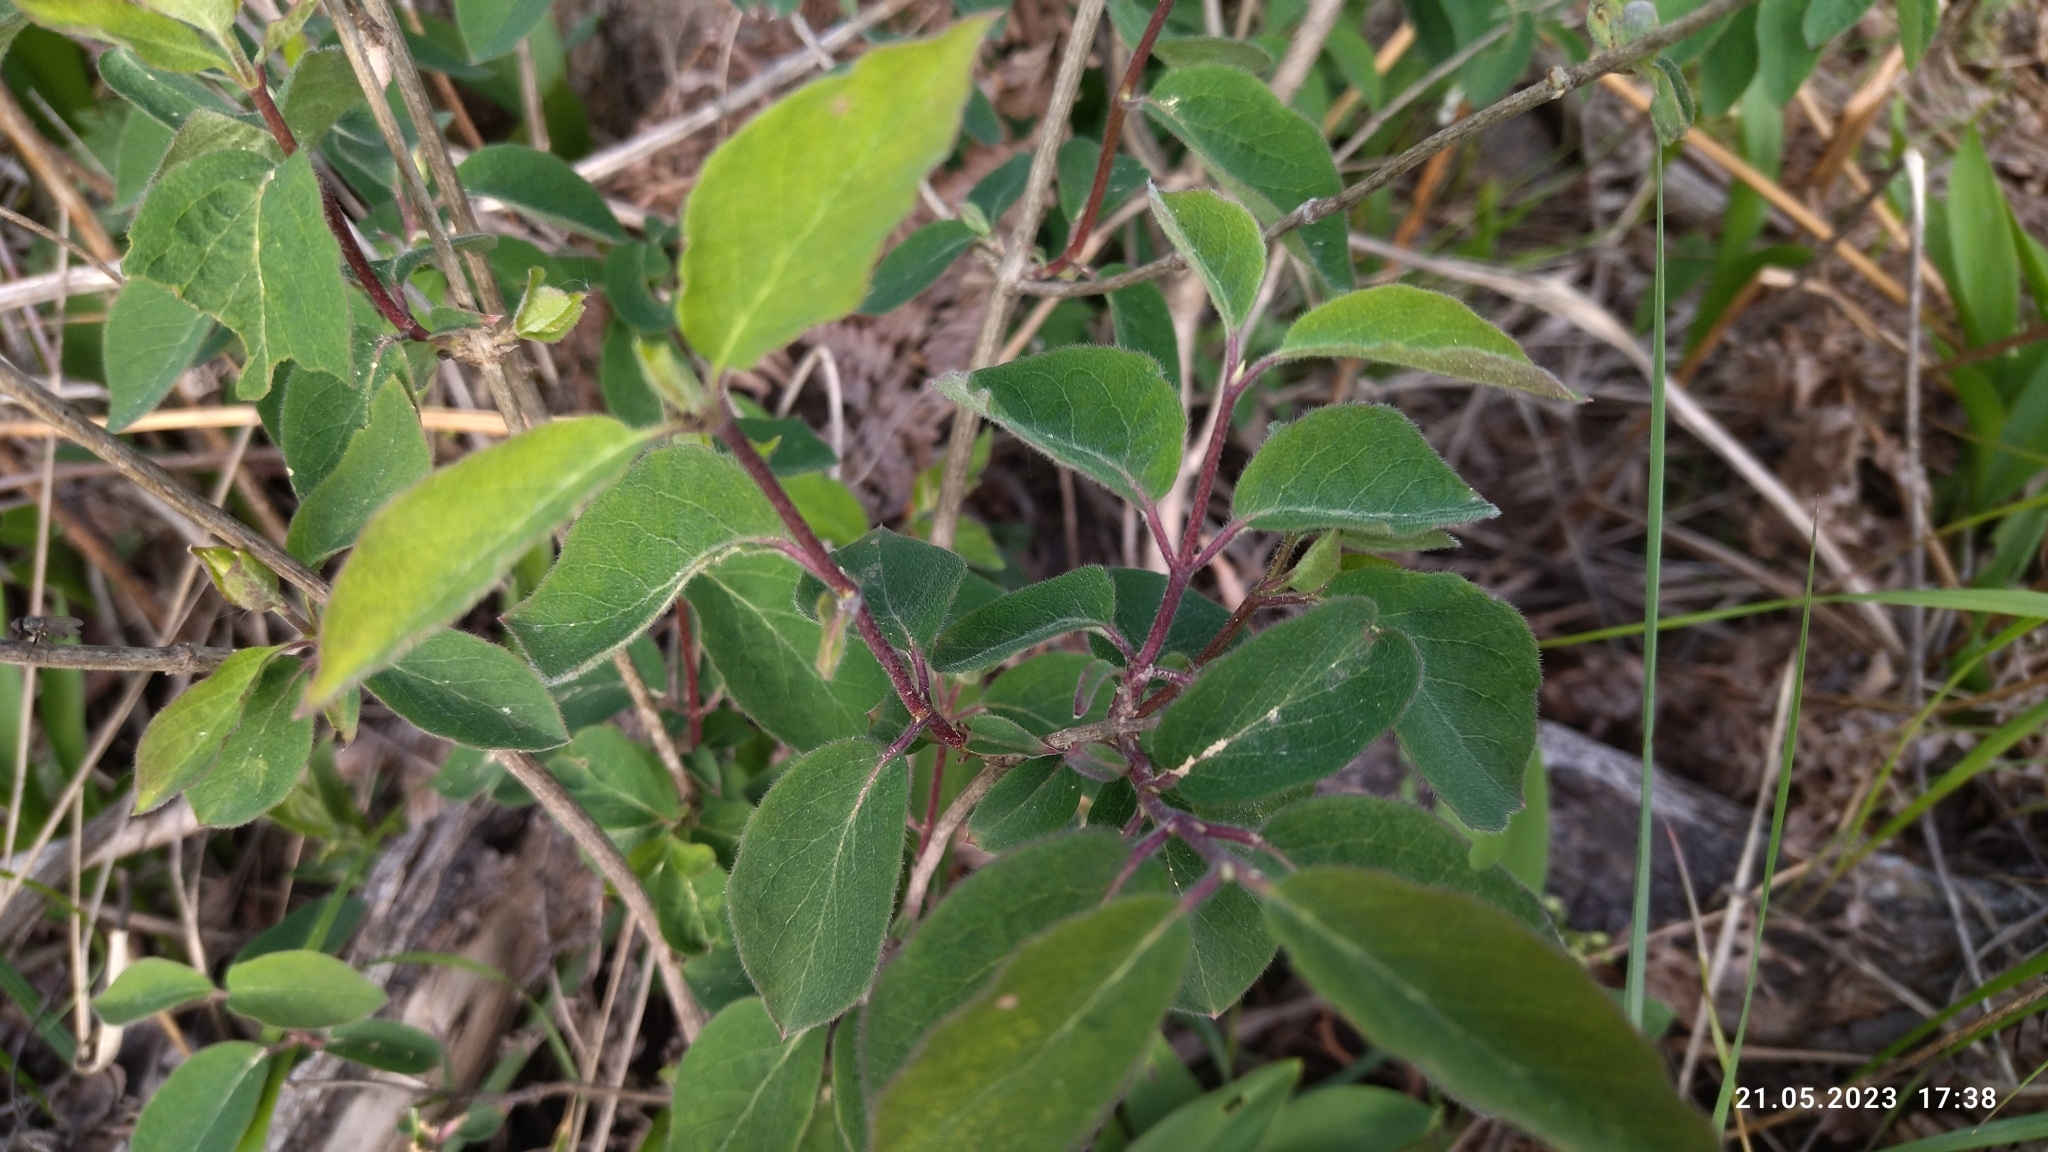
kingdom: Plantae
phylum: Tracheophyta
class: Magnoliopsida
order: Dipsacales
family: Caprifoliaceae
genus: Lonicera
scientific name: Lonicera xylosteum
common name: Fly honeysuckle
